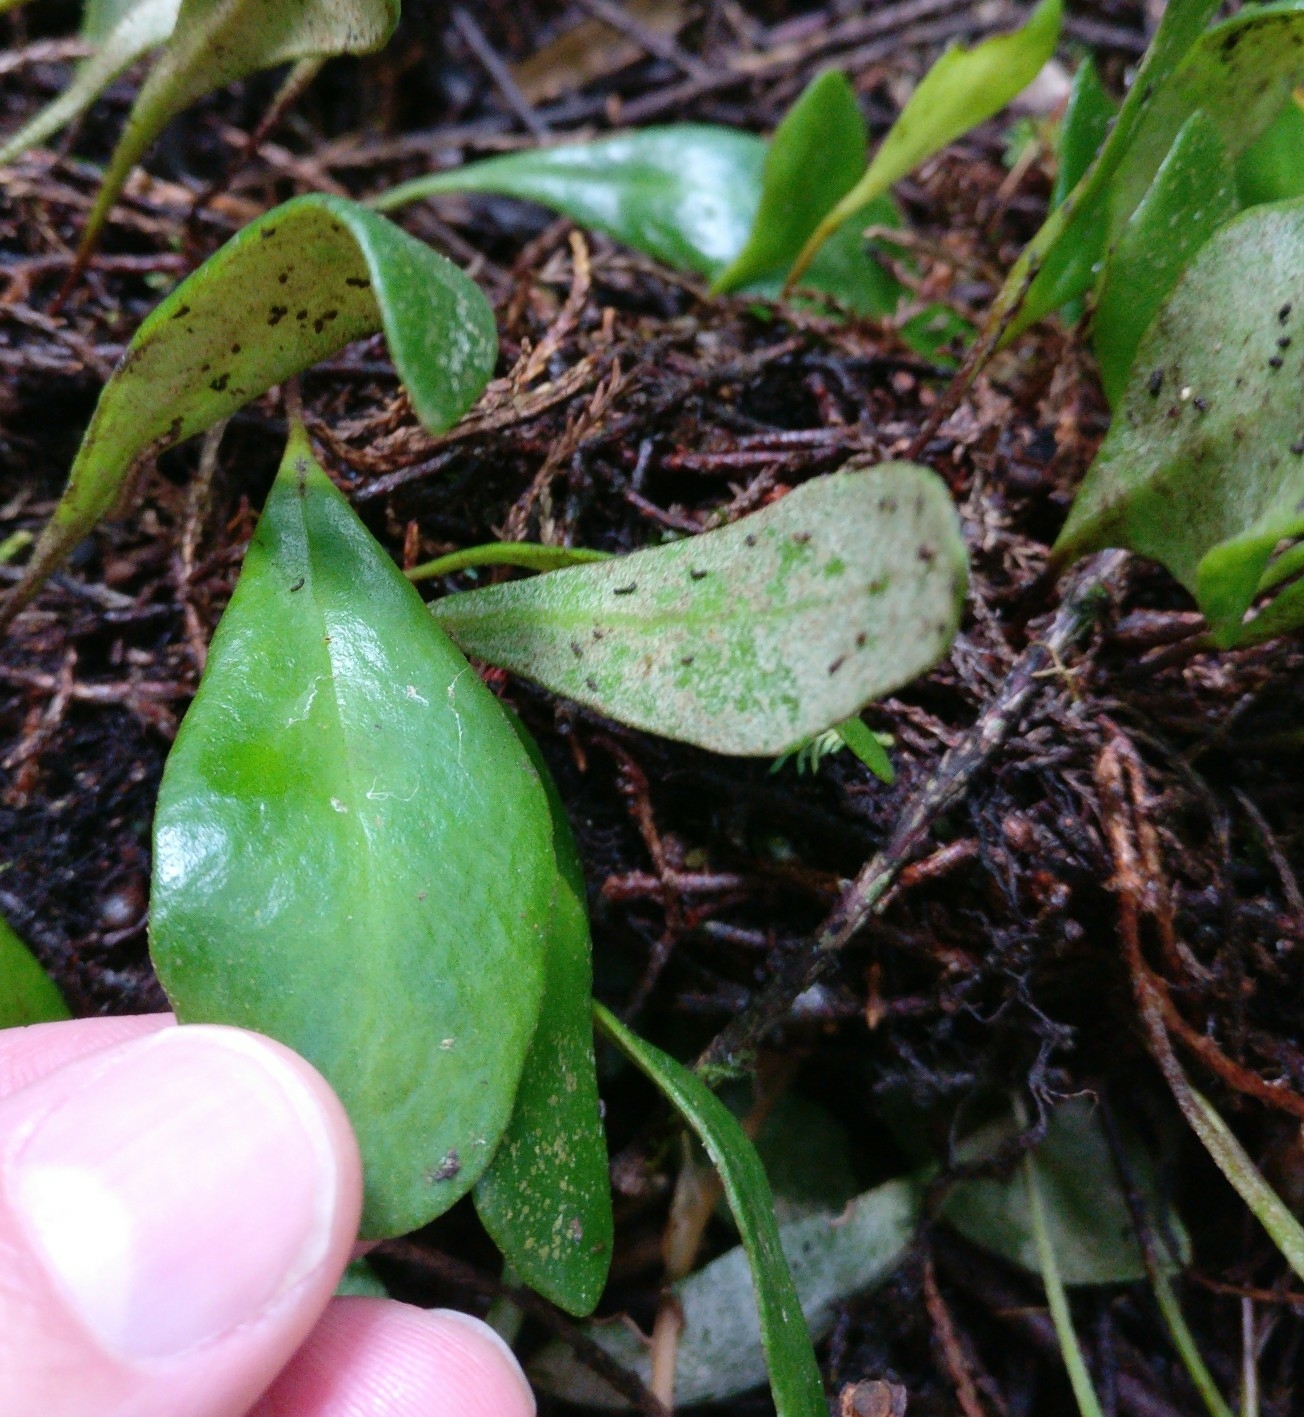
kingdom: Plantae
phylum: Tracheophyta
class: Polypodiopsida
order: Polypodiales
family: Polypodiaceae
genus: Pyrrosia
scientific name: Pyrrosia eleagnifolia
